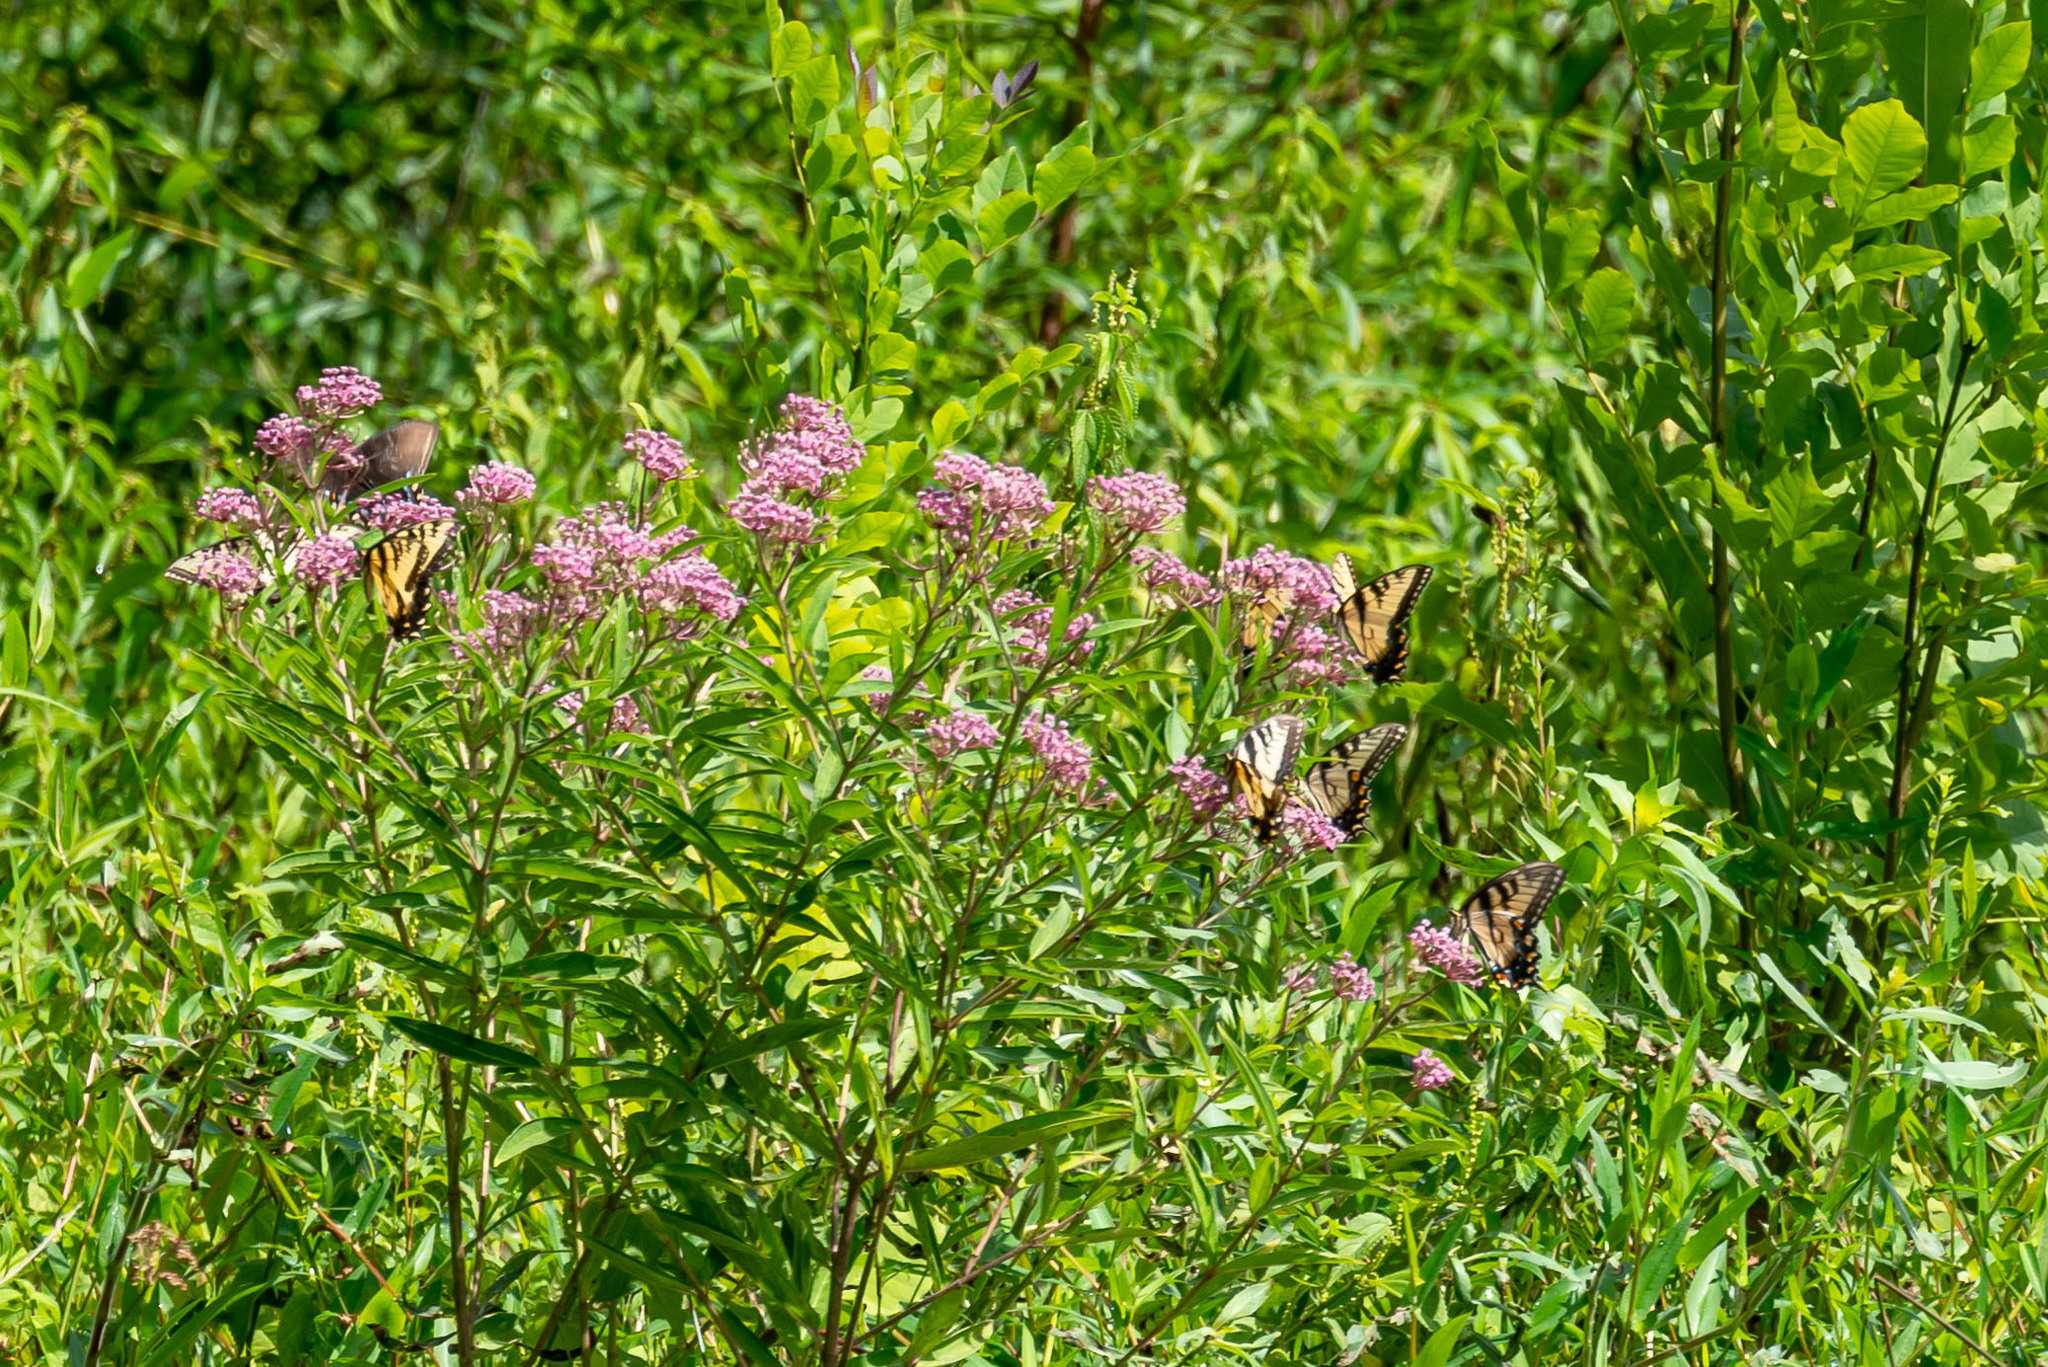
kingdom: Animalia
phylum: Arthropoda
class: Insecta
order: Lepidoptera
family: Papilionidae
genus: Papilio
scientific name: Papilio glaucus
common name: Tiger swallowtail
